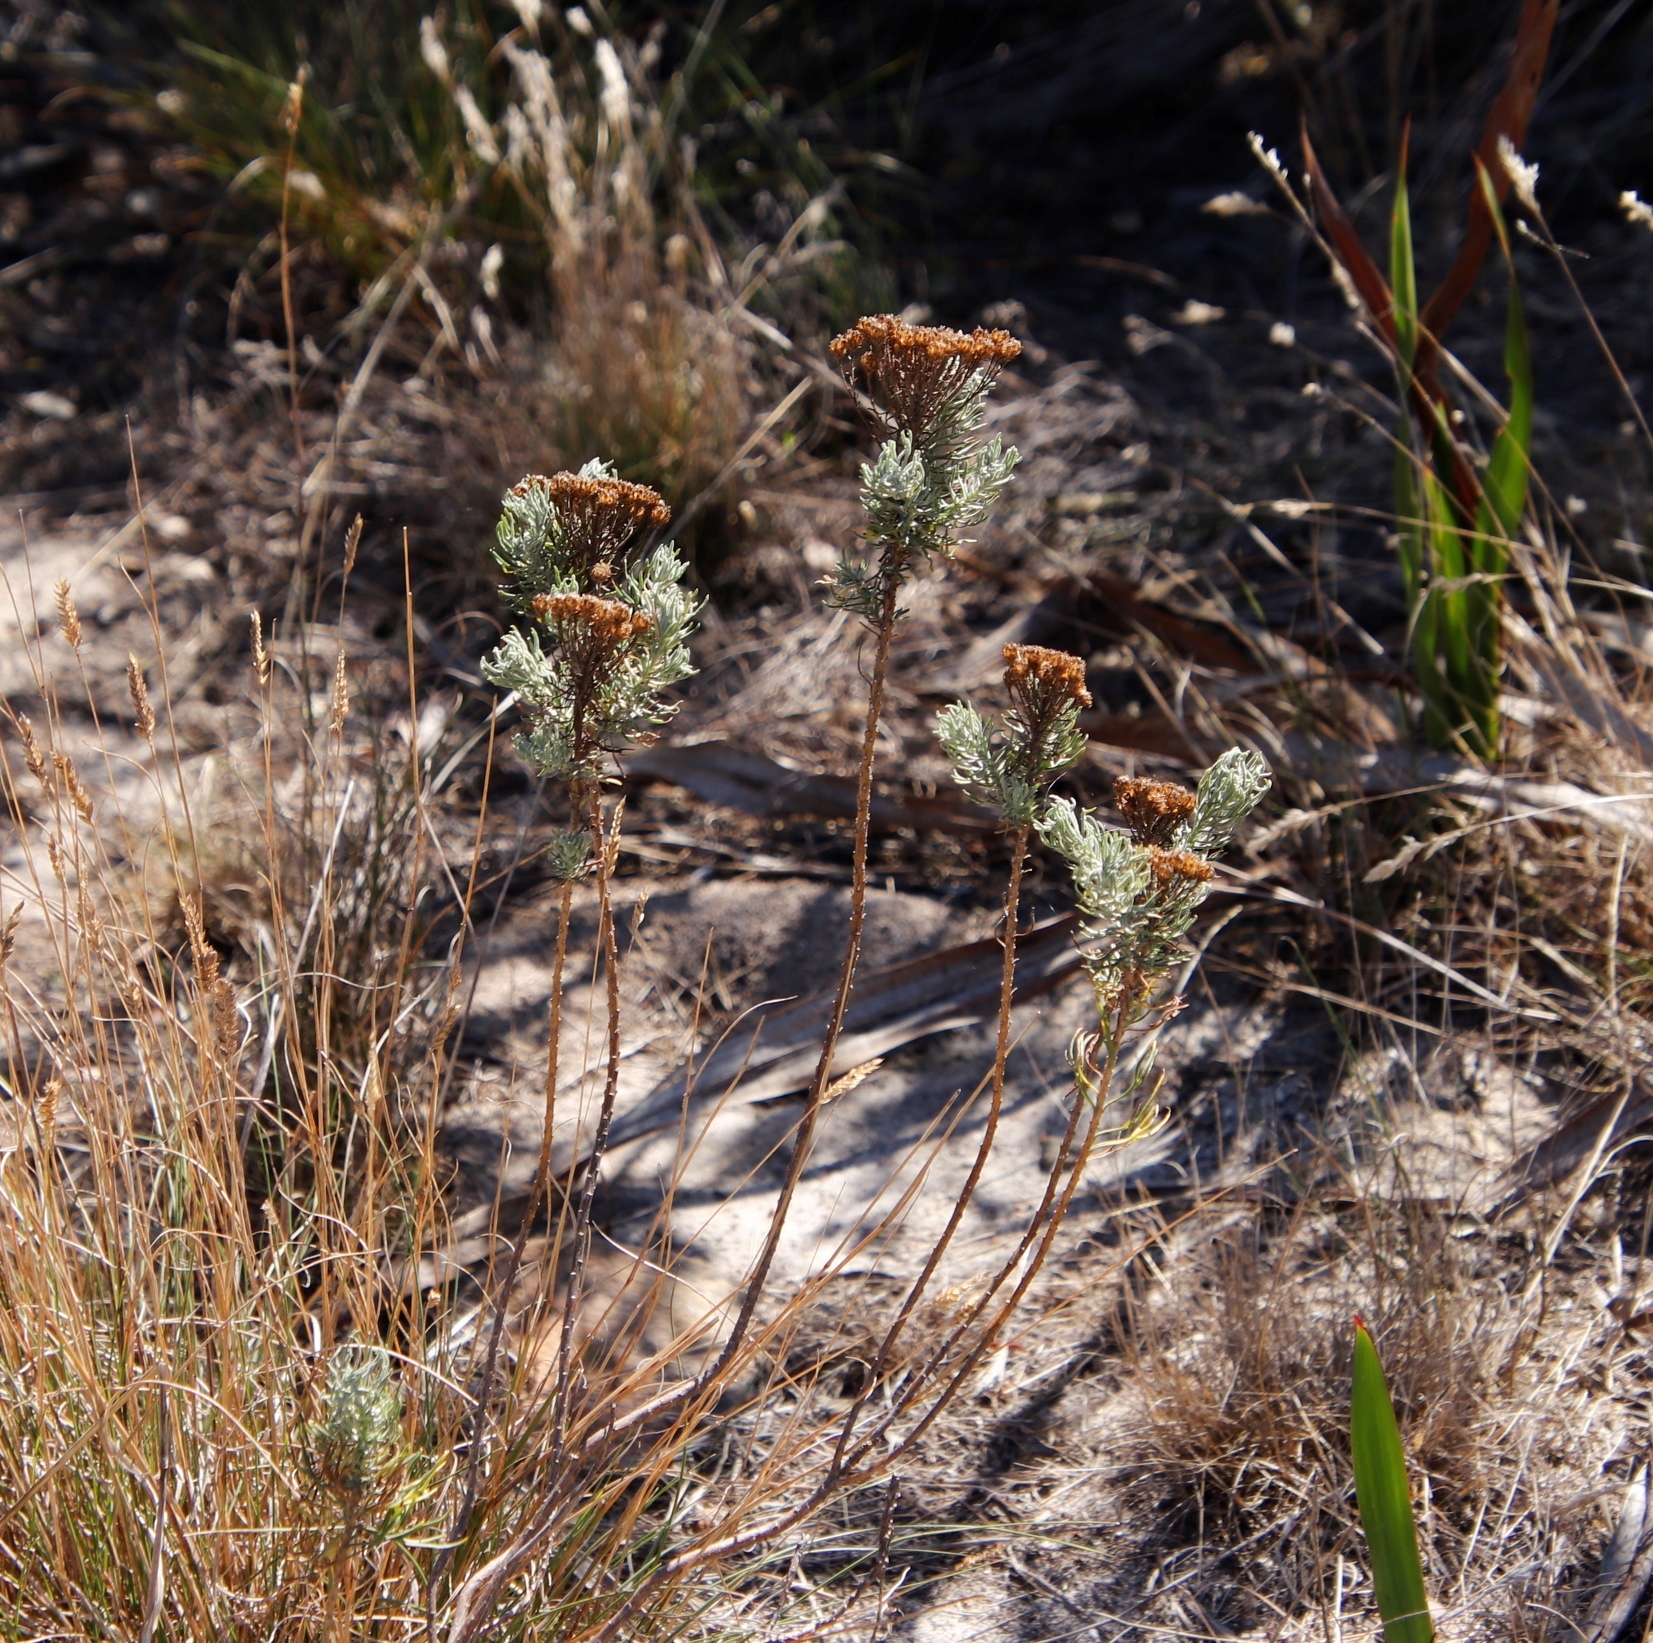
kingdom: Plantae
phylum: Tracheophyta
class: Magnoliopsida
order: Asterales
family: Asteraceae
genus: Athanasia
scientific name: Athanasia crithmifolia
